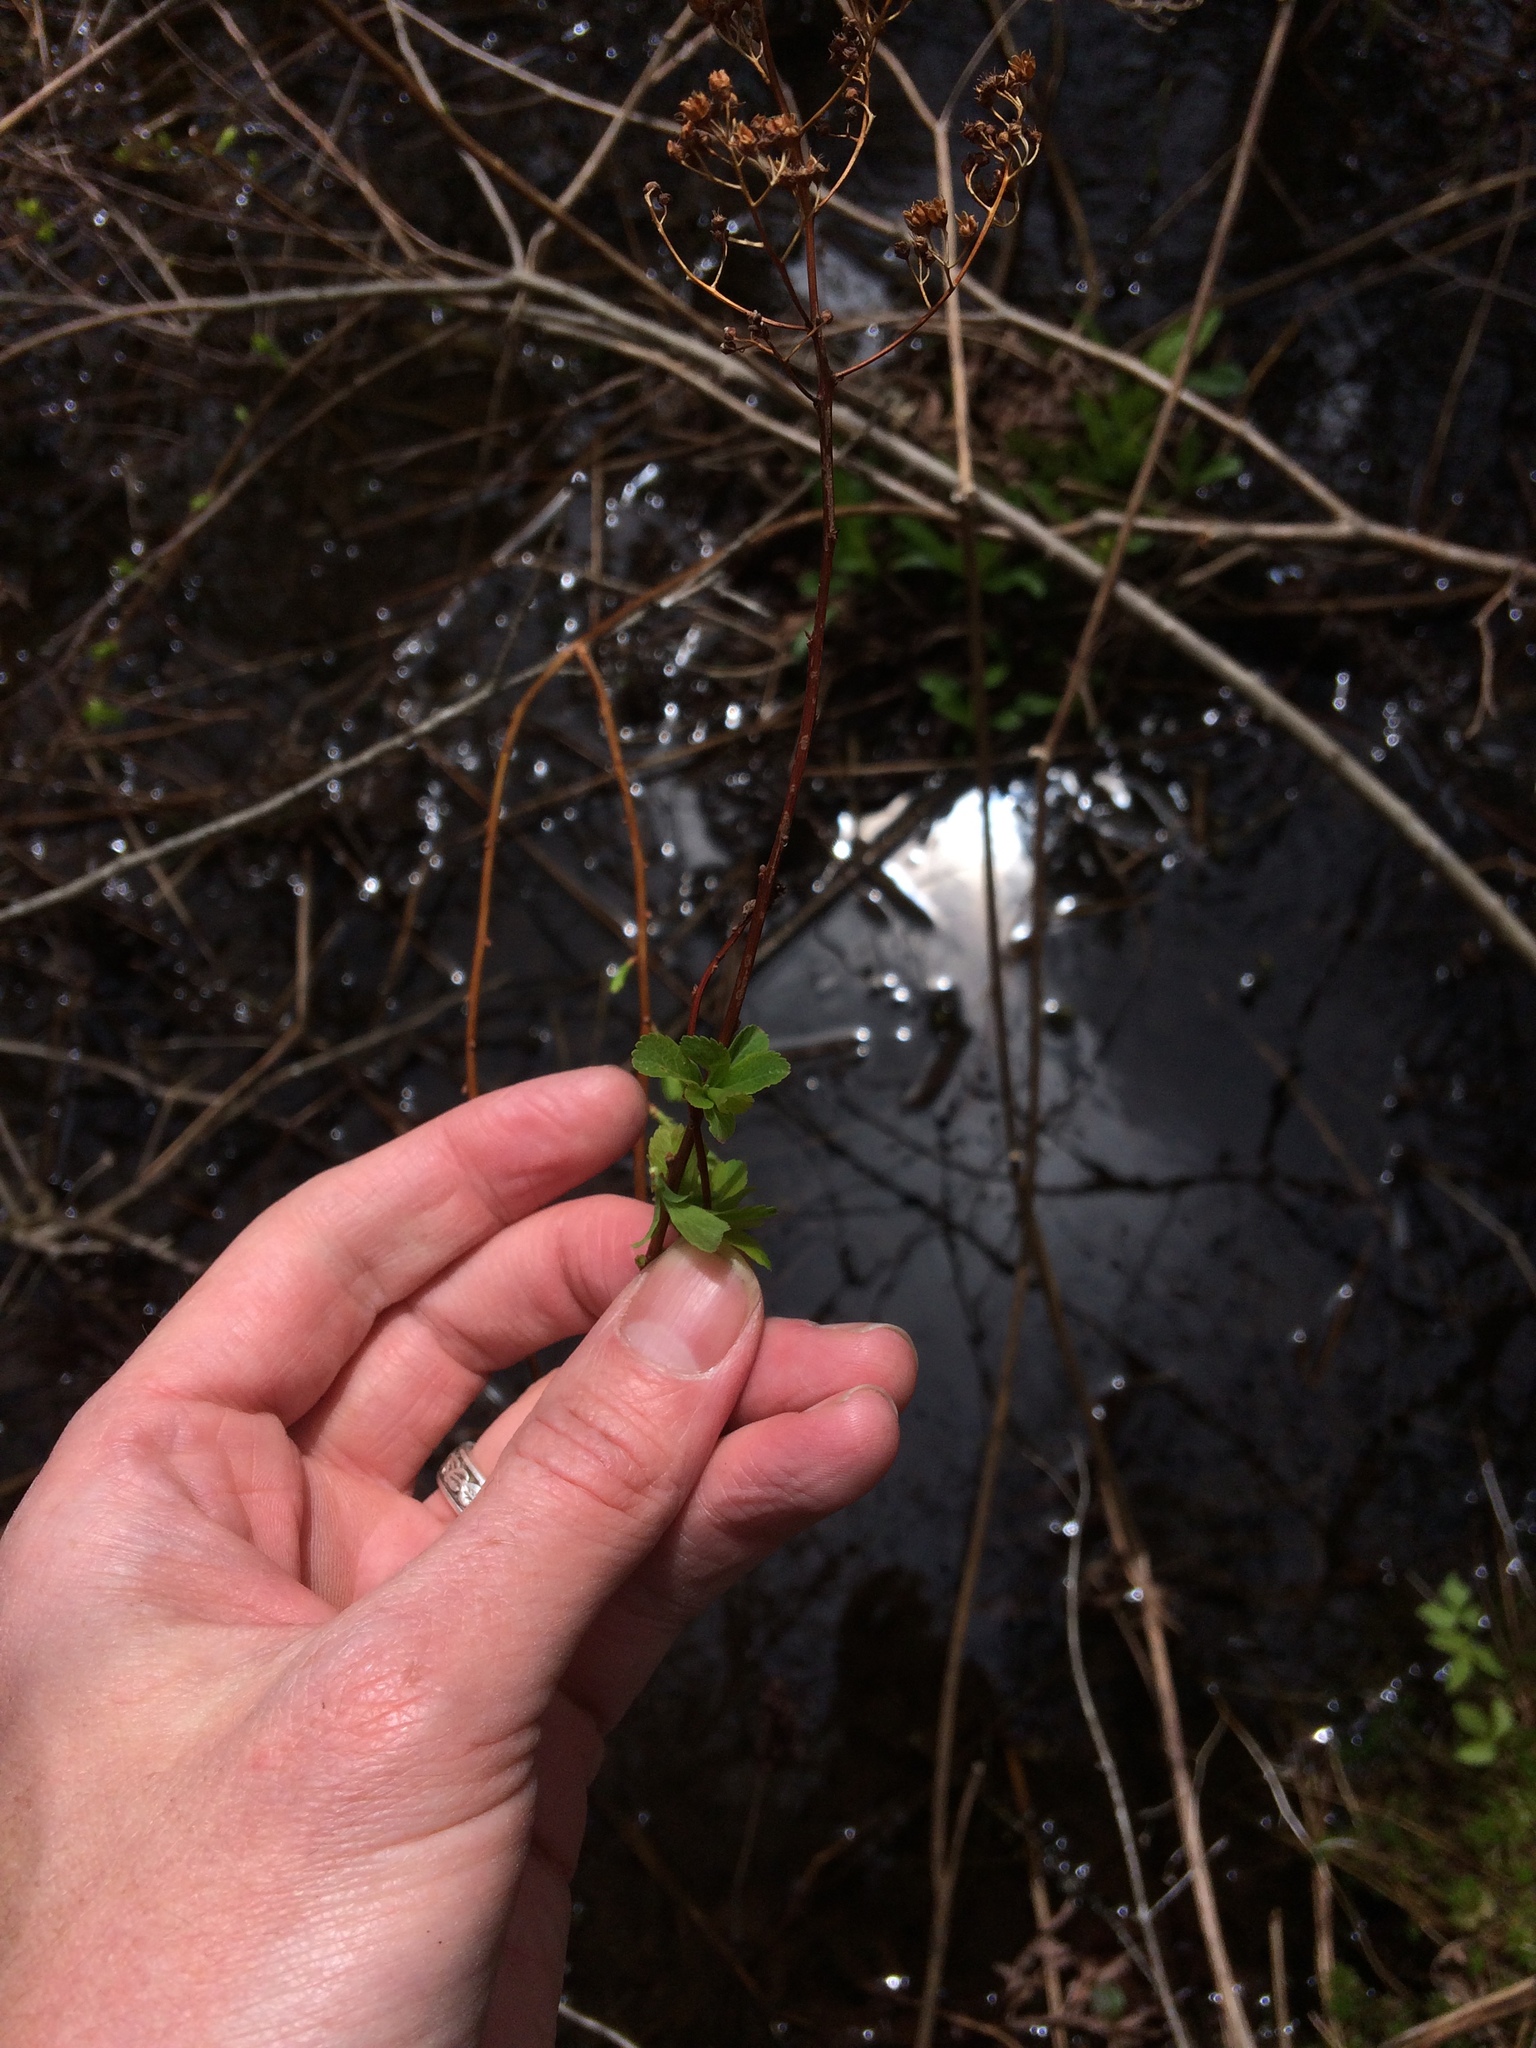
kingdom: Plantae
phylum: Tracheophyta
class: Magnoliopsida
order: Rosales
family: Rosaceae
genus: Spiraea
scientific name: Spiraea alba
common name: Pale bridewort
